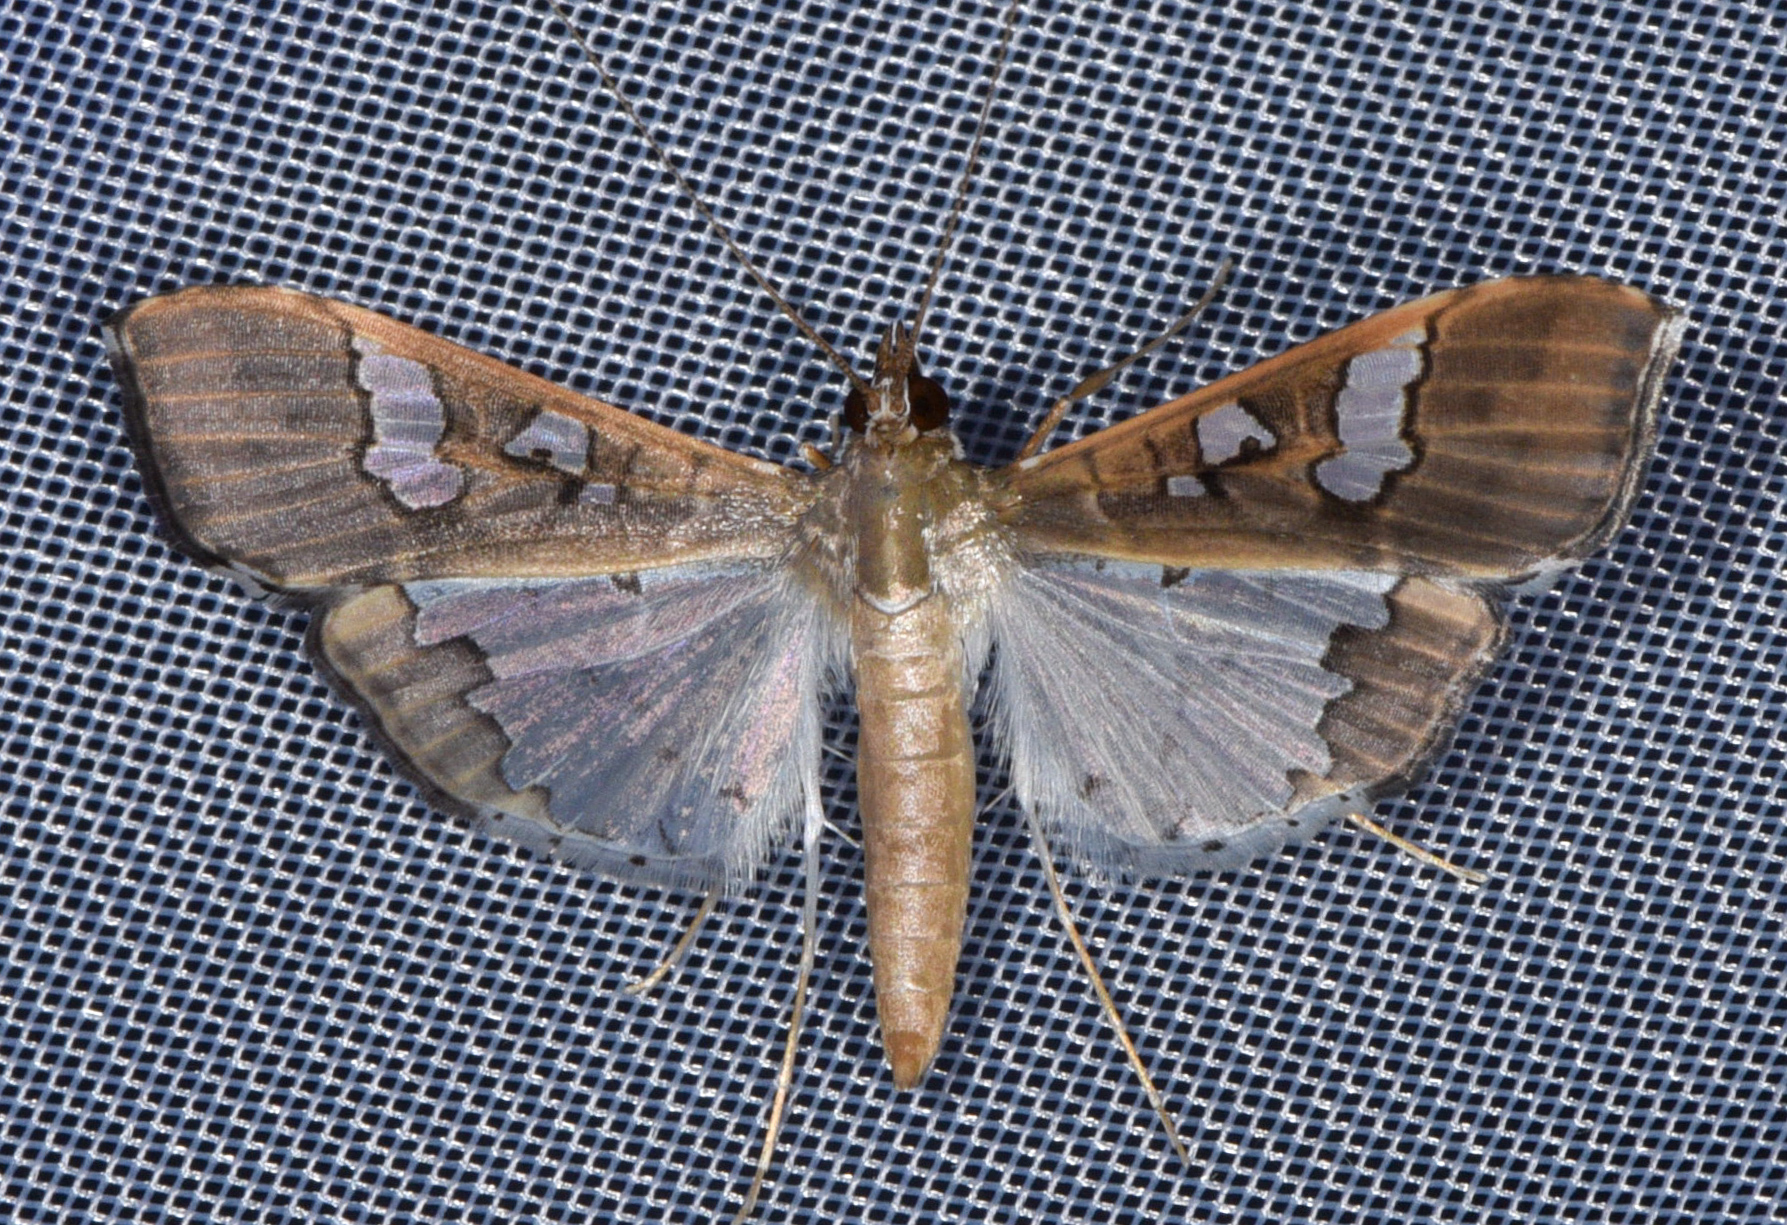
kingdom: Animalia
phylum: Arthropoda
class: Insecta
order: Lepidoptera
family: Crambidae
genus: Maruca
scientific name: Maruca vitrata
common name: Maruca pod borer
